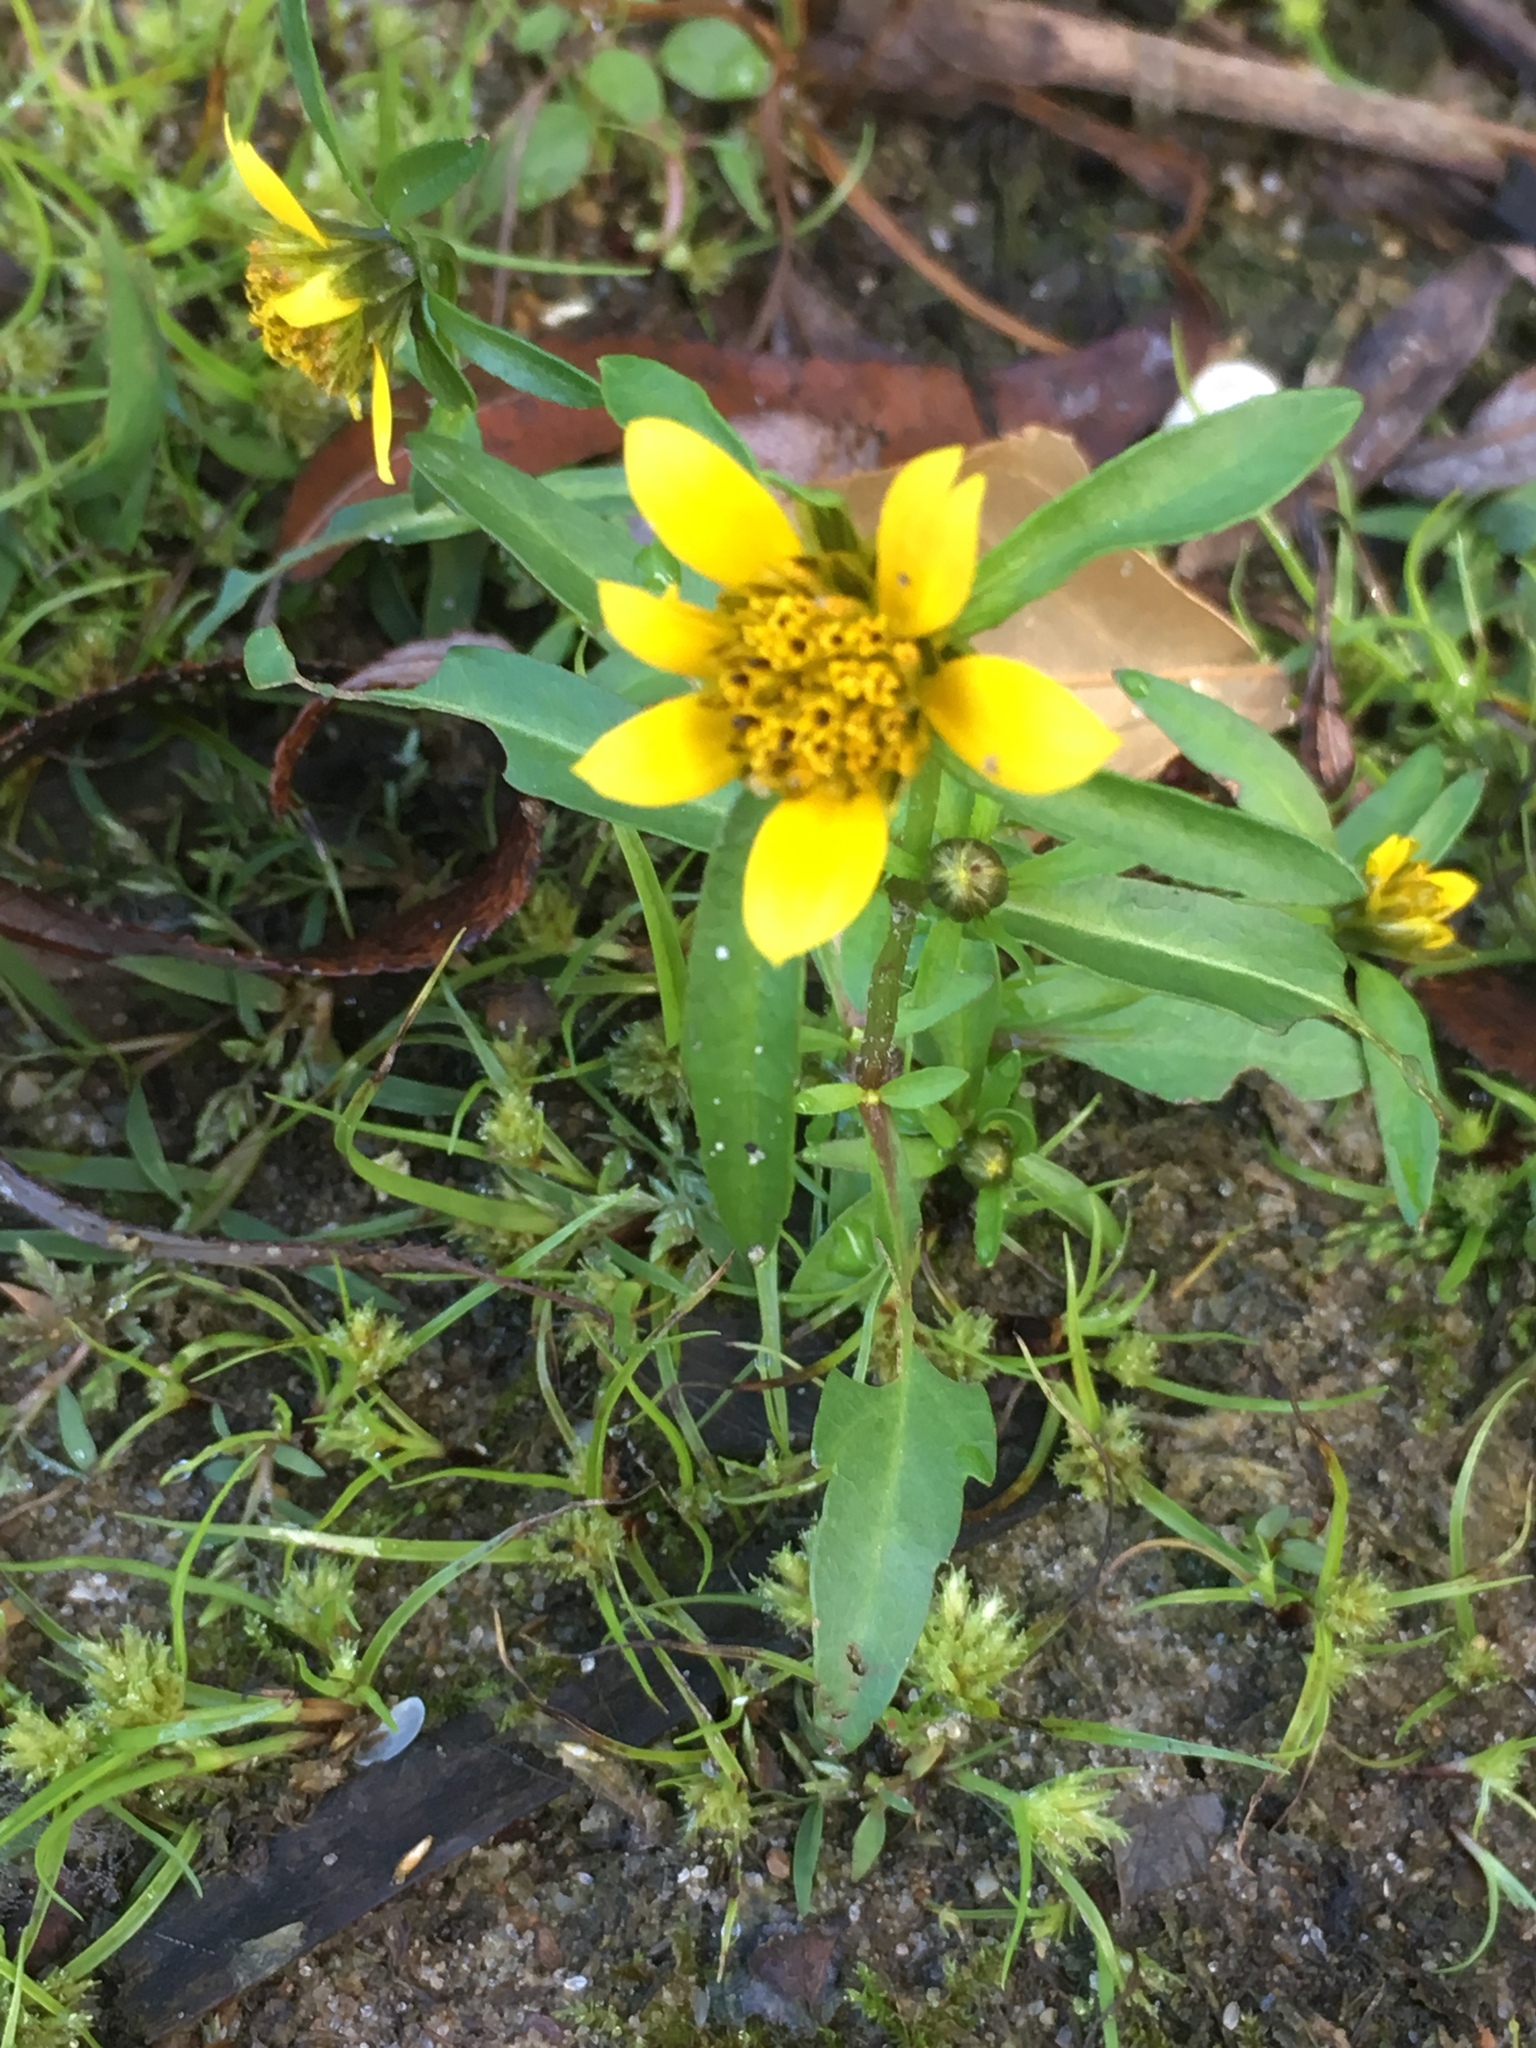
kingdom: Plantae
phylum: Tracheophyta
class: Magnoliopsida
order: Asterales
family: Asteraceae
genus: Bidens
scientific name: Bidens cernua
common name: Nodding bur-marigold
